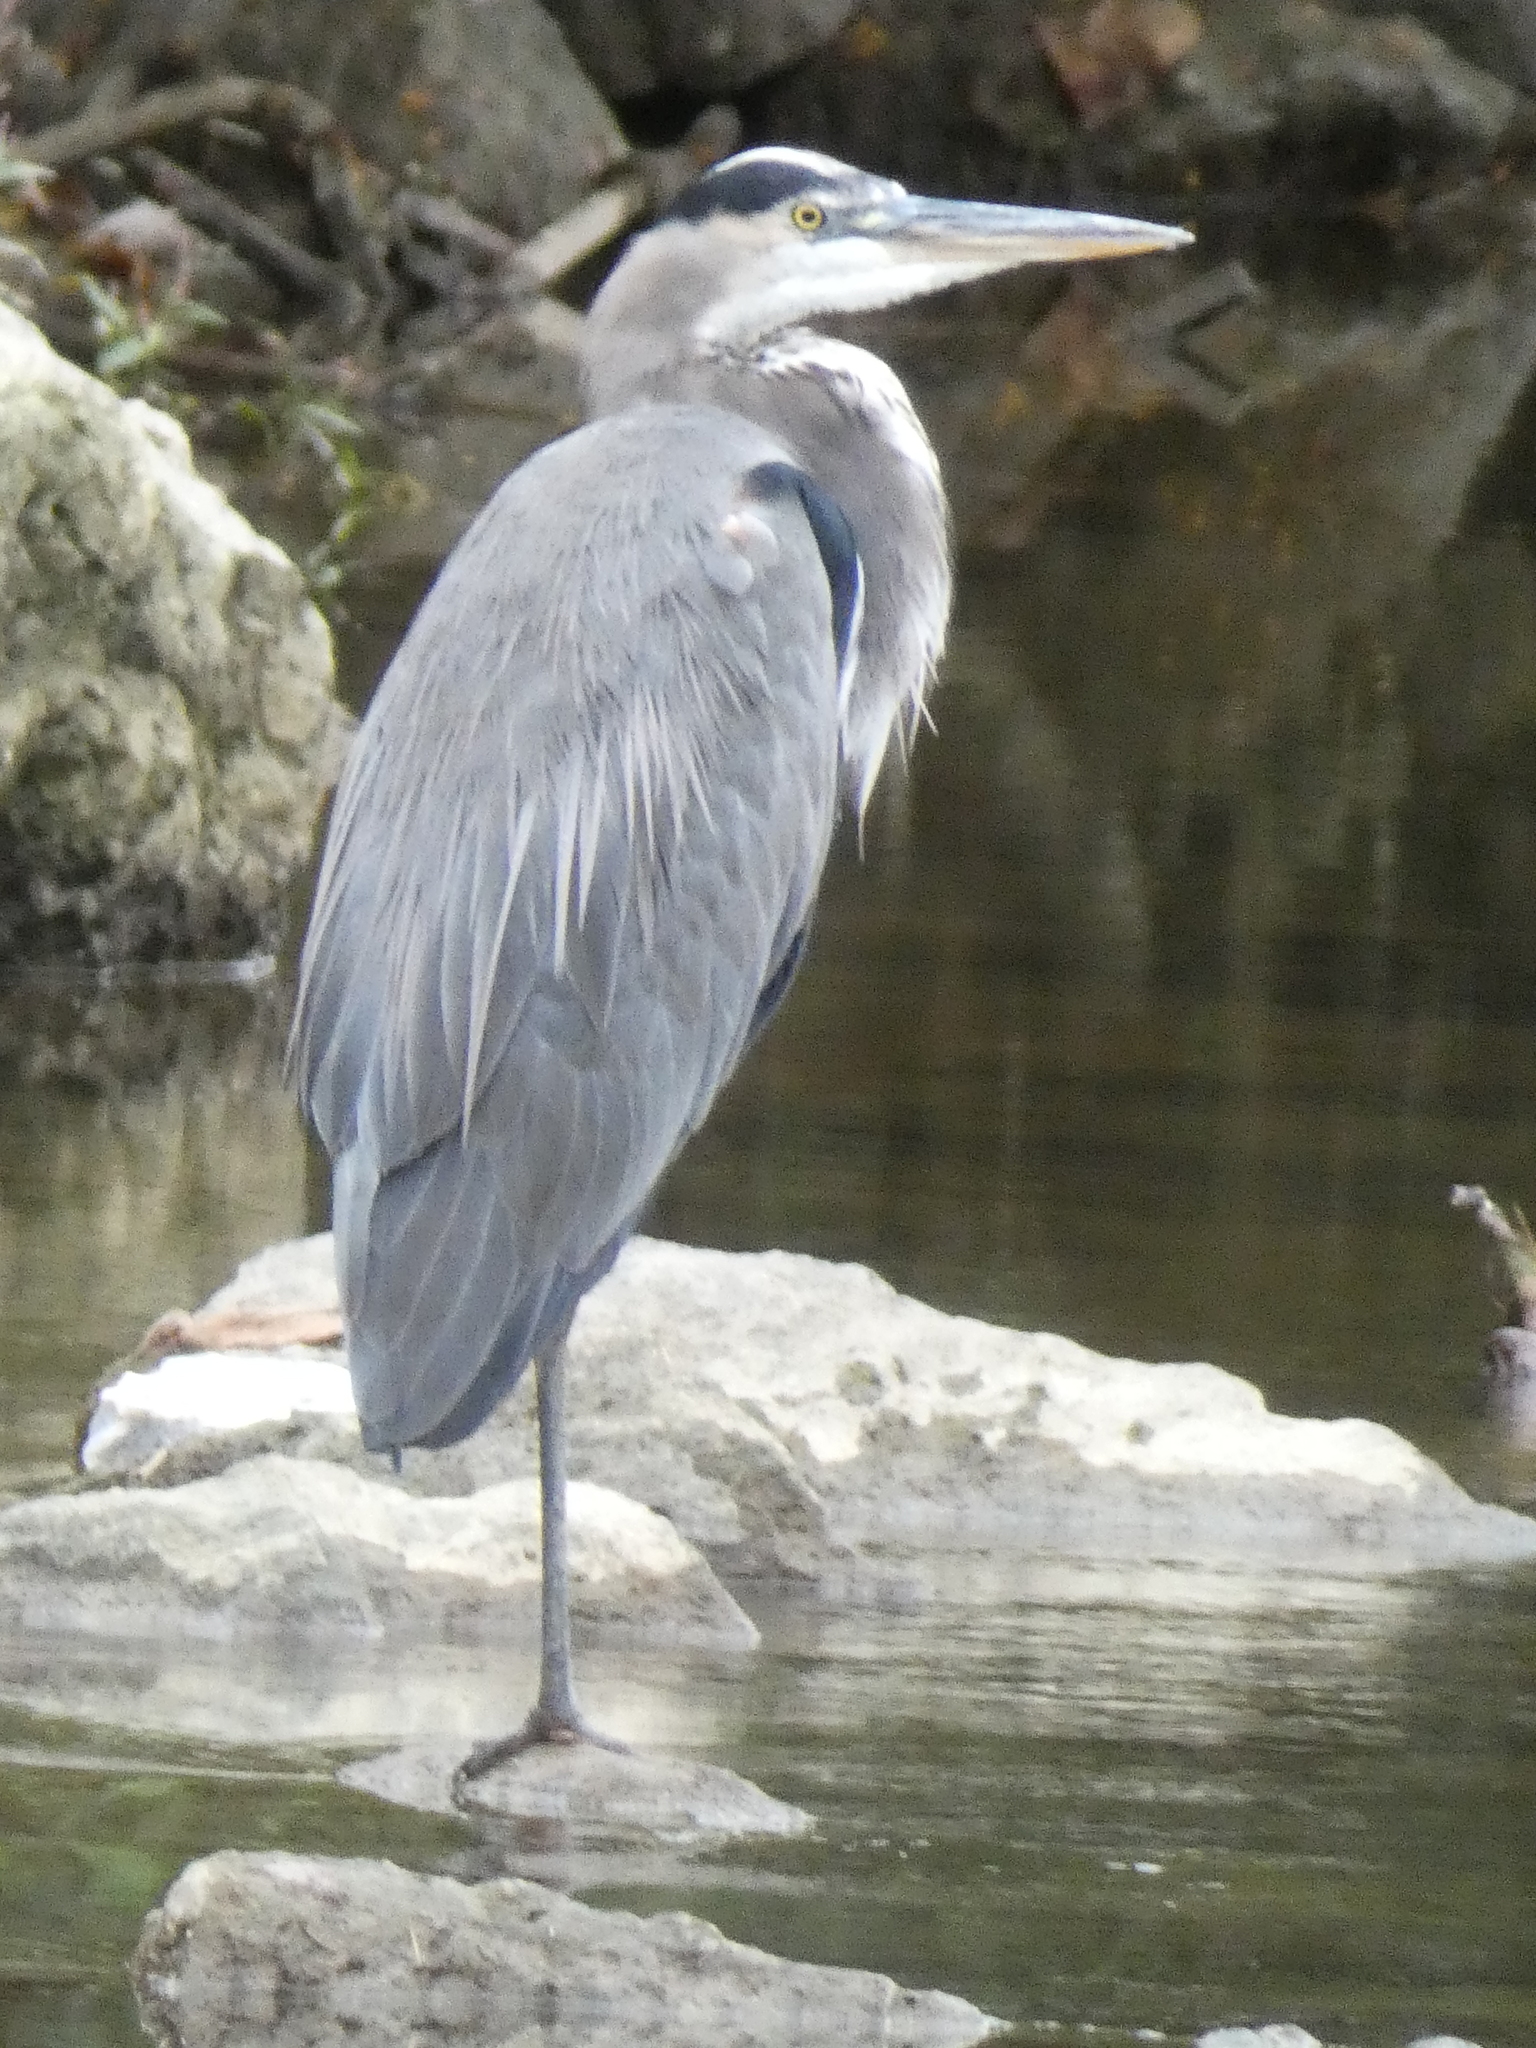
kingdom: Animalia
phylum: Chordata
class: Aves
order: Pelecaniformes
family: Ardeidae
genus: Ardea
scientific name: Ardea herodias
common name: Great blue heron
